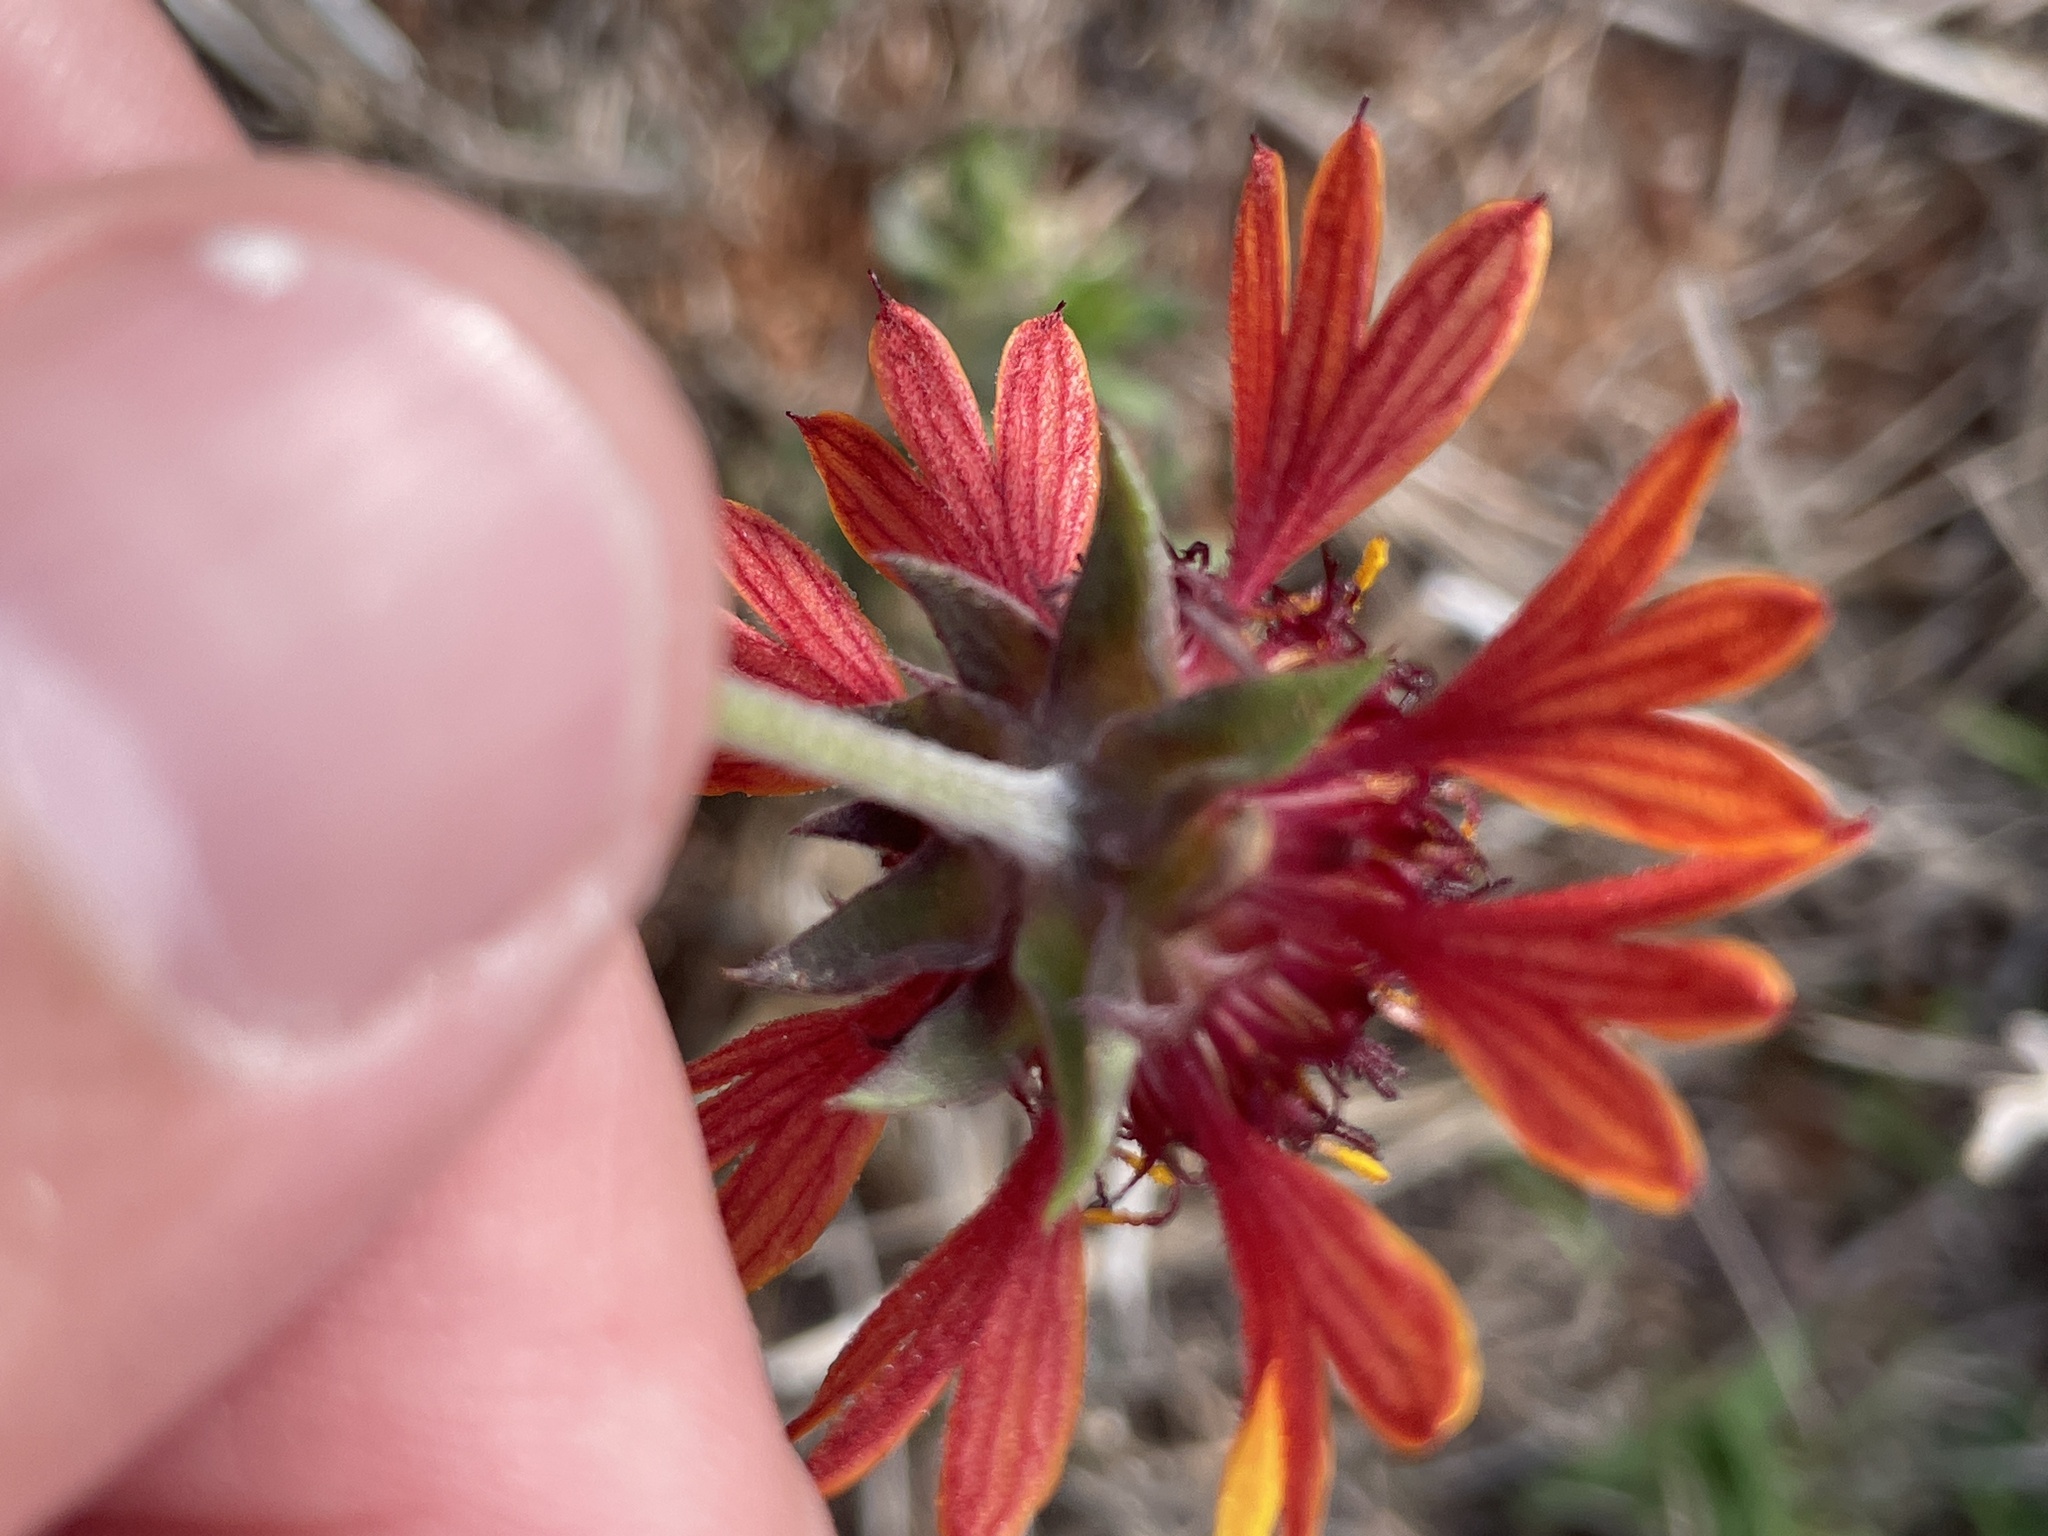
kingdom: Plantae
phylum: Tracheophyta
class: Magnoliopsida
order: Asterales
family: Asteraceae
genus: Gaillardia
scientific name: Gaillardia aestivalis
